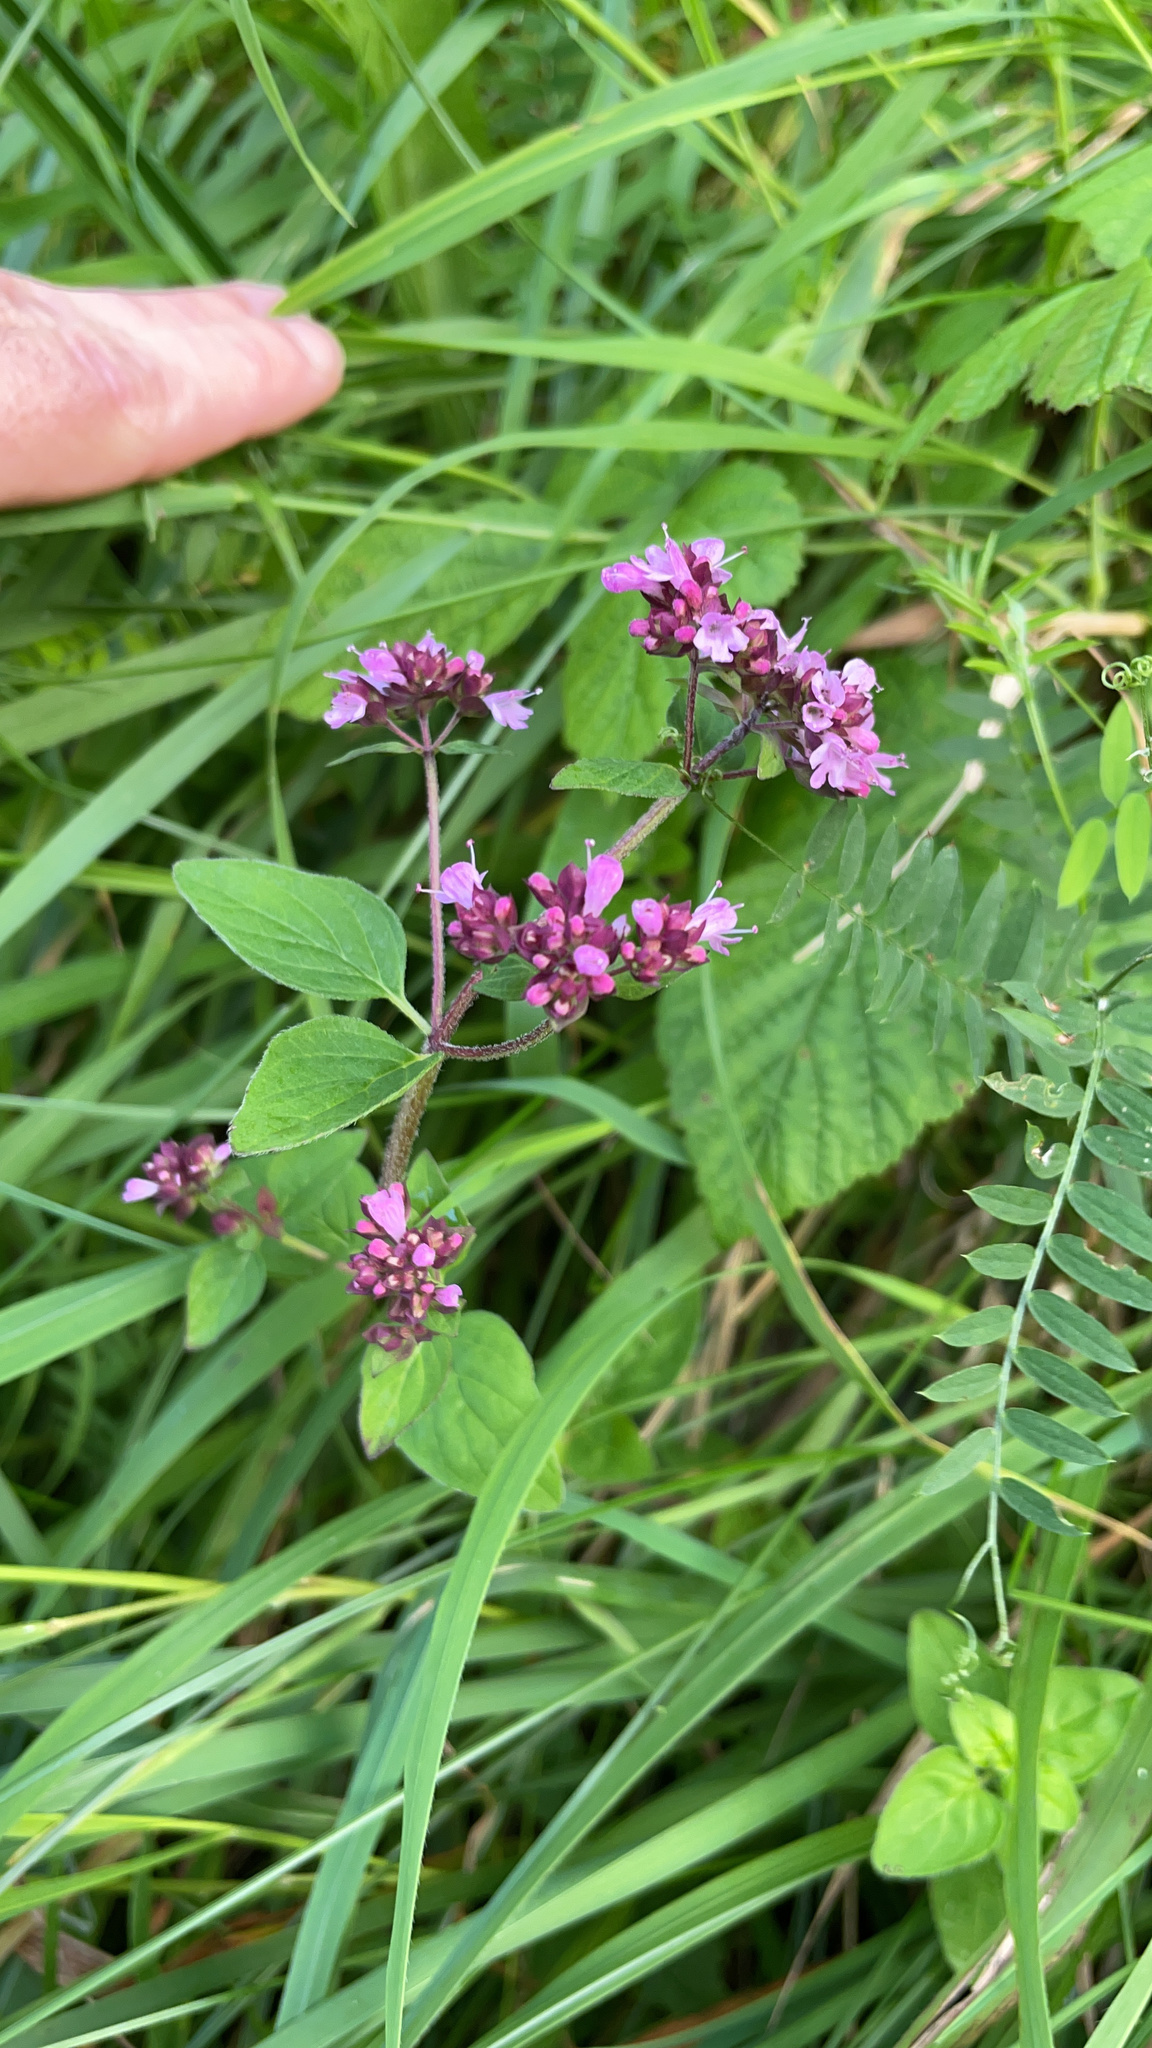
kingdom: Plantae
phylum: Tracheophyta
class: Magnoliopsida
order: Lamiales
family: Lamiaceae
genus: Origanum
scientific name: Origanum vulgare
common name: Wild marjoram
